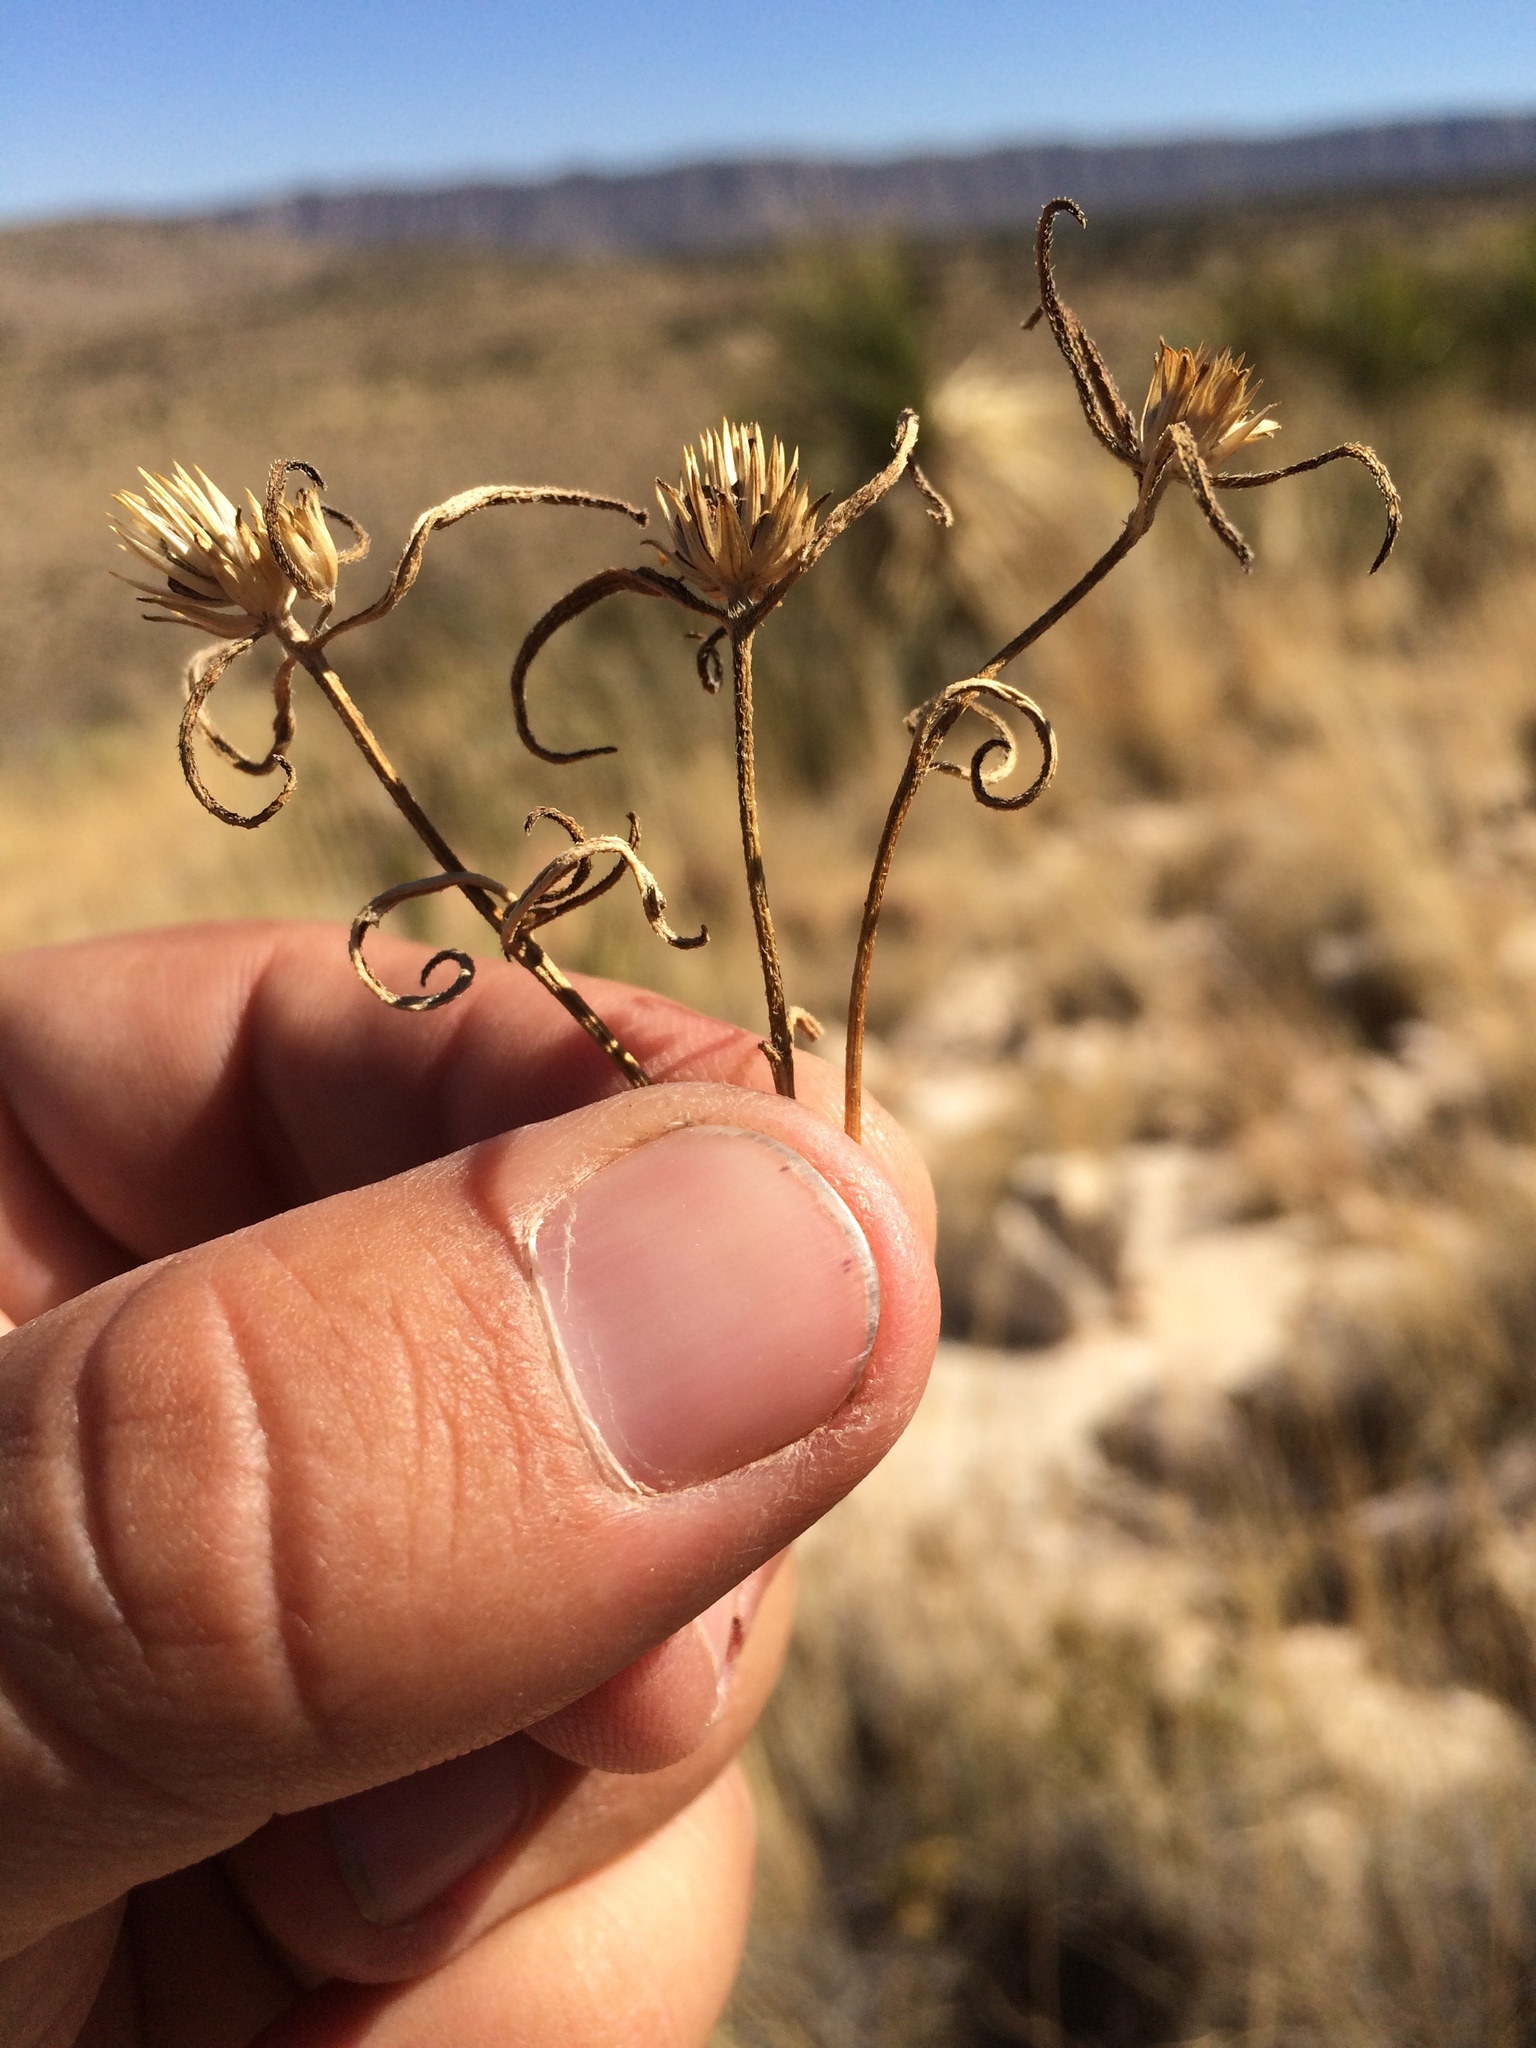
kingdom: Plantae
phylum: Tracheophyta
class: Magnoliopsida
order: Asterales
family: Asteraceae
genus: Sanvitalia
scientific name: Sanvitalia abertii
